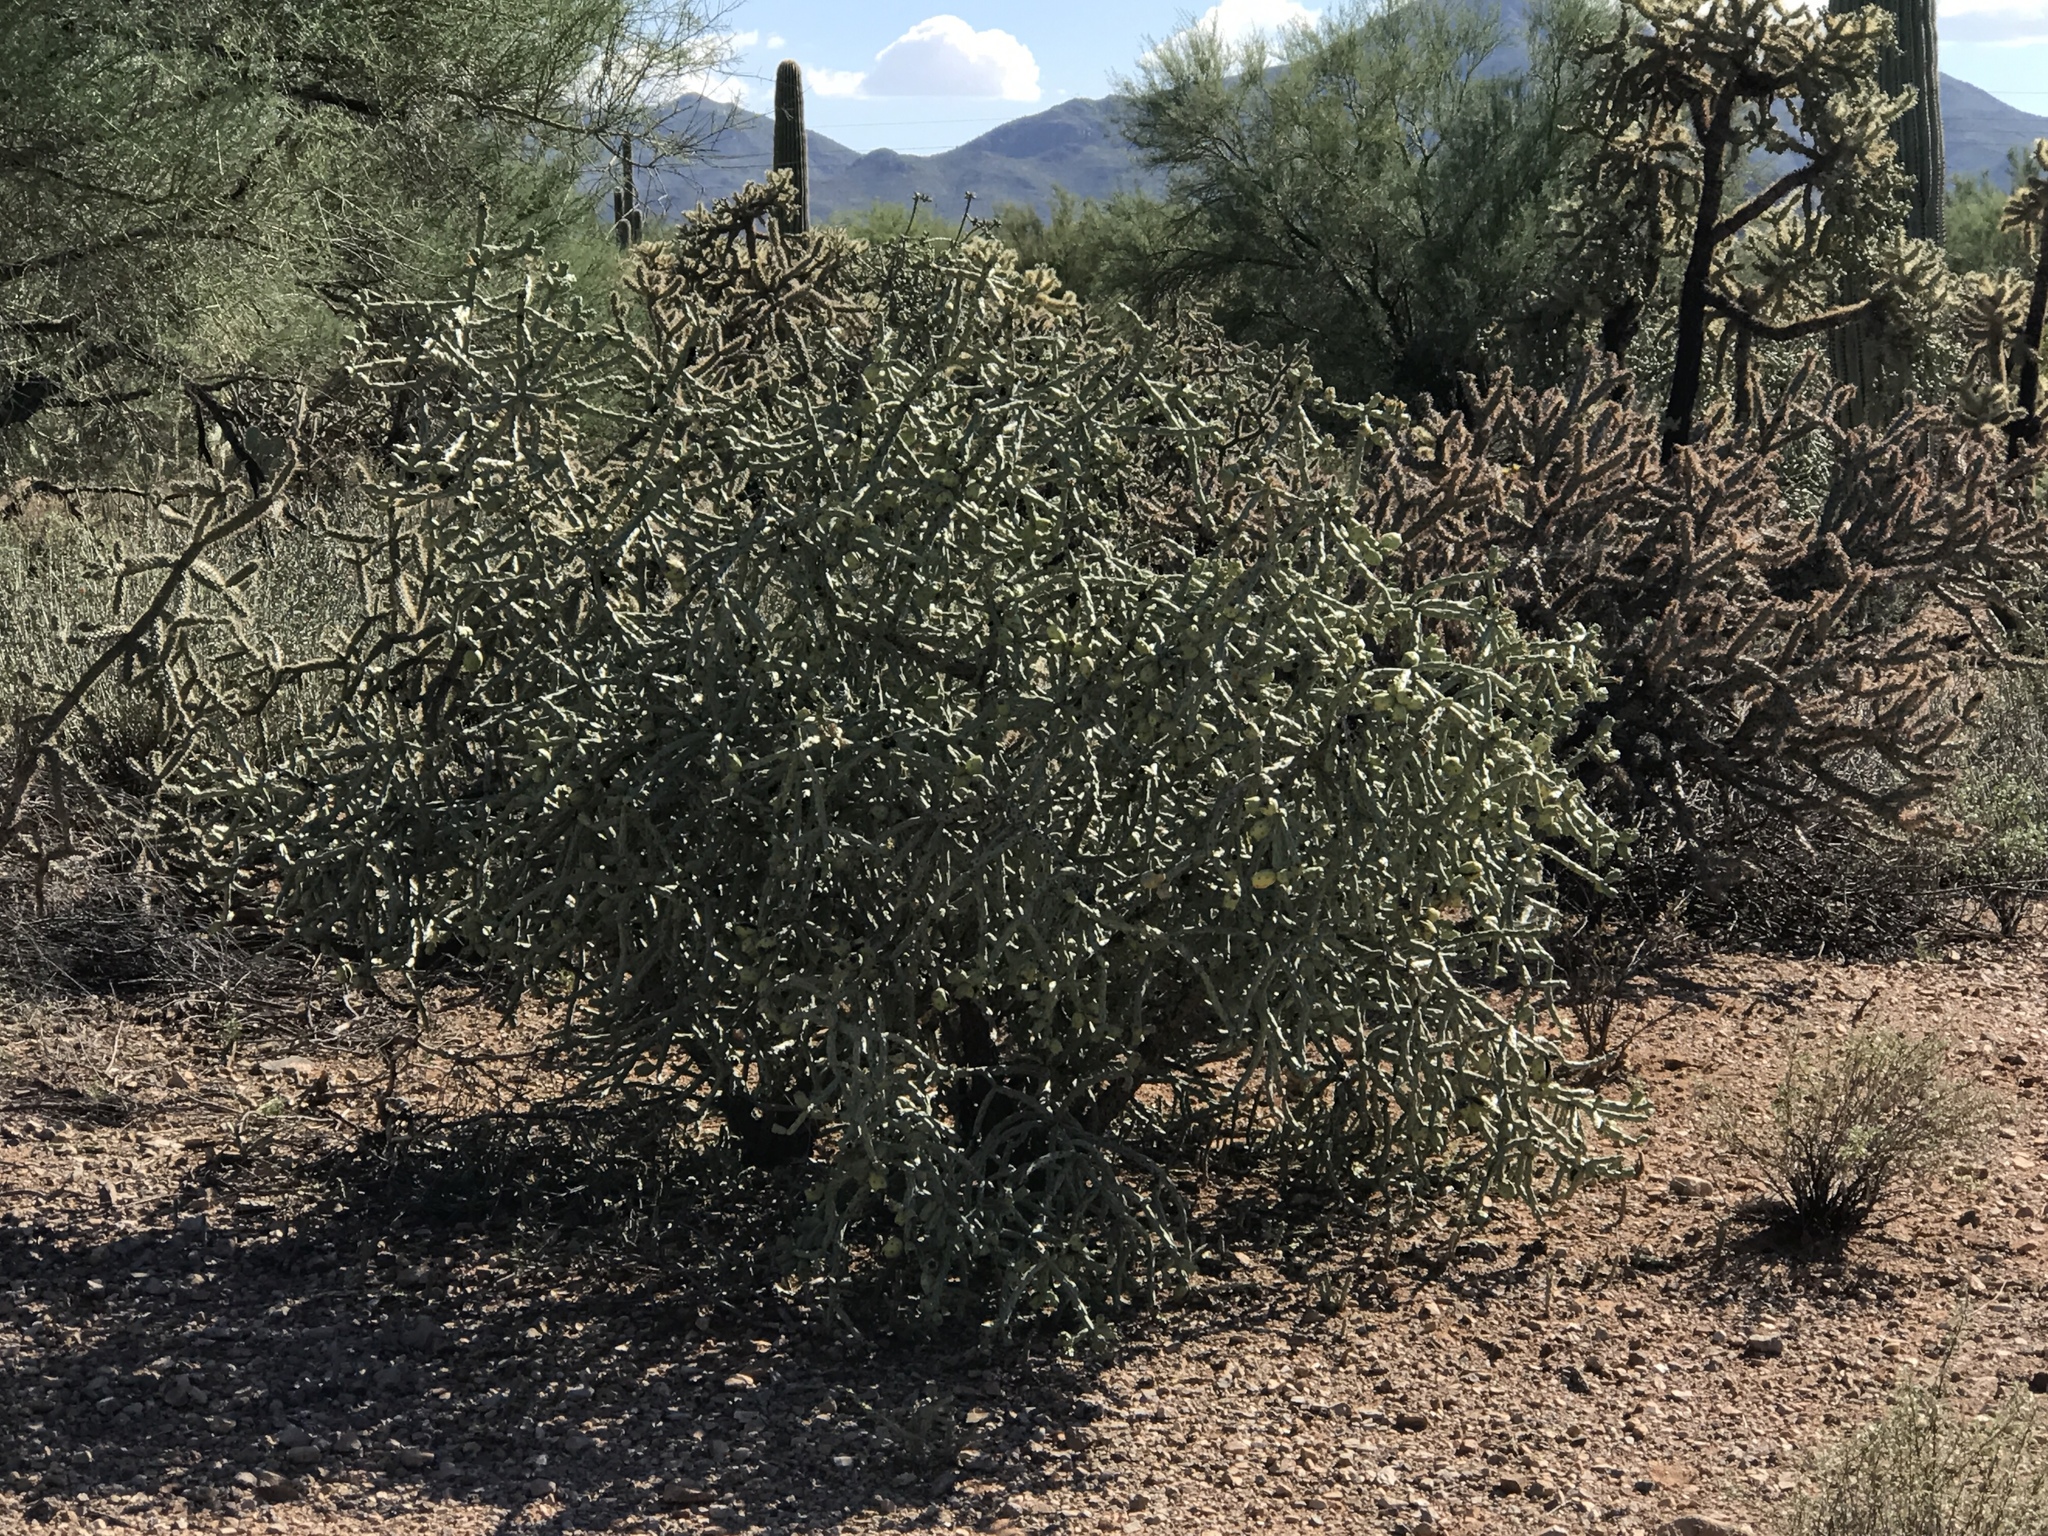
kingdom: Plantae
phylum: Tracheophyta
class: Magnoliopsida
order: Caryophyllales
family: Cactaceae
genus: Cylindropuntia
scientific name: Cylindropuntia arbuscula
